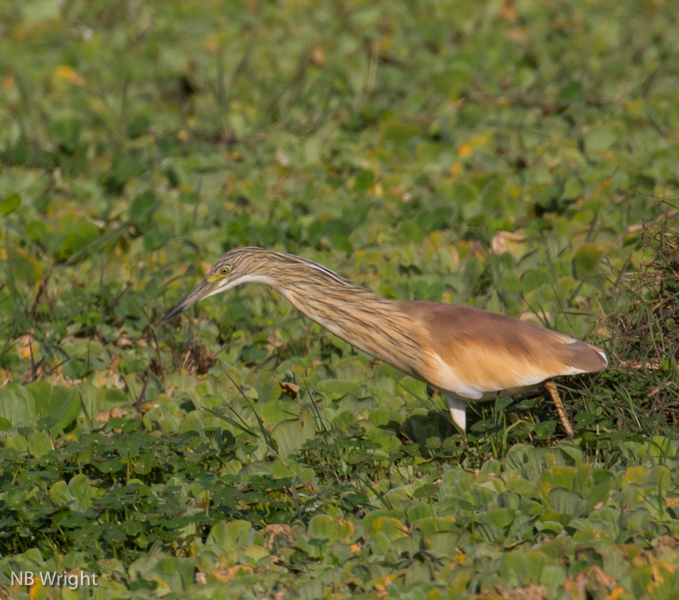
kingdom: Animalia
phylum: Chordata
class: Aves
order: Pelecaniformes
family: Ardeidae
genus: Ardeola
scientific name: Ardeola ralloides
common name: Squacco heron
